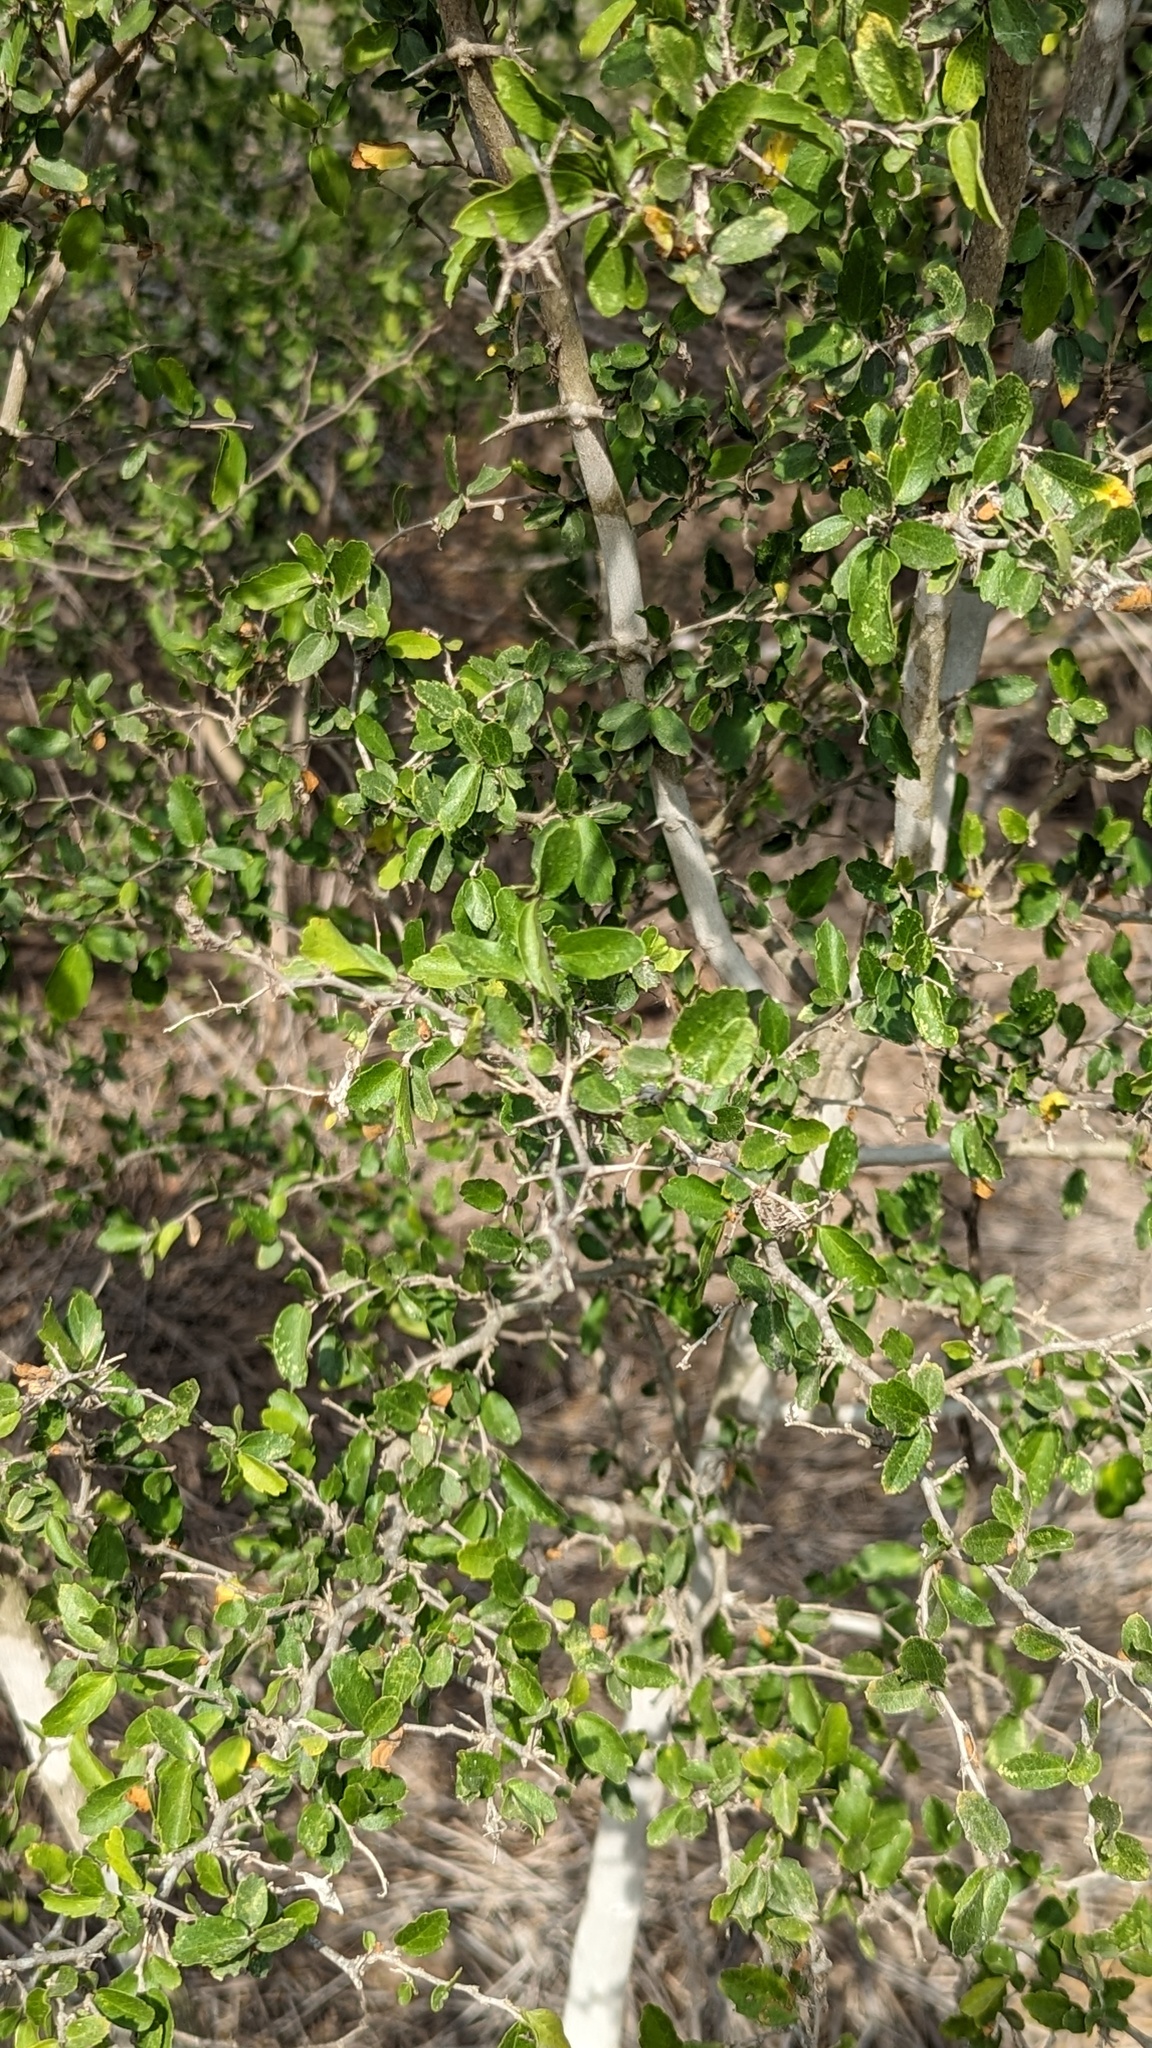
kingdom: Plantae
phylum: Tracheophyta
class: Magnoliopsida
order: Rosales
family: Cannabaceae
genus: Celtis
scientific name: Celtis pallida
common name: Desert hackberry
